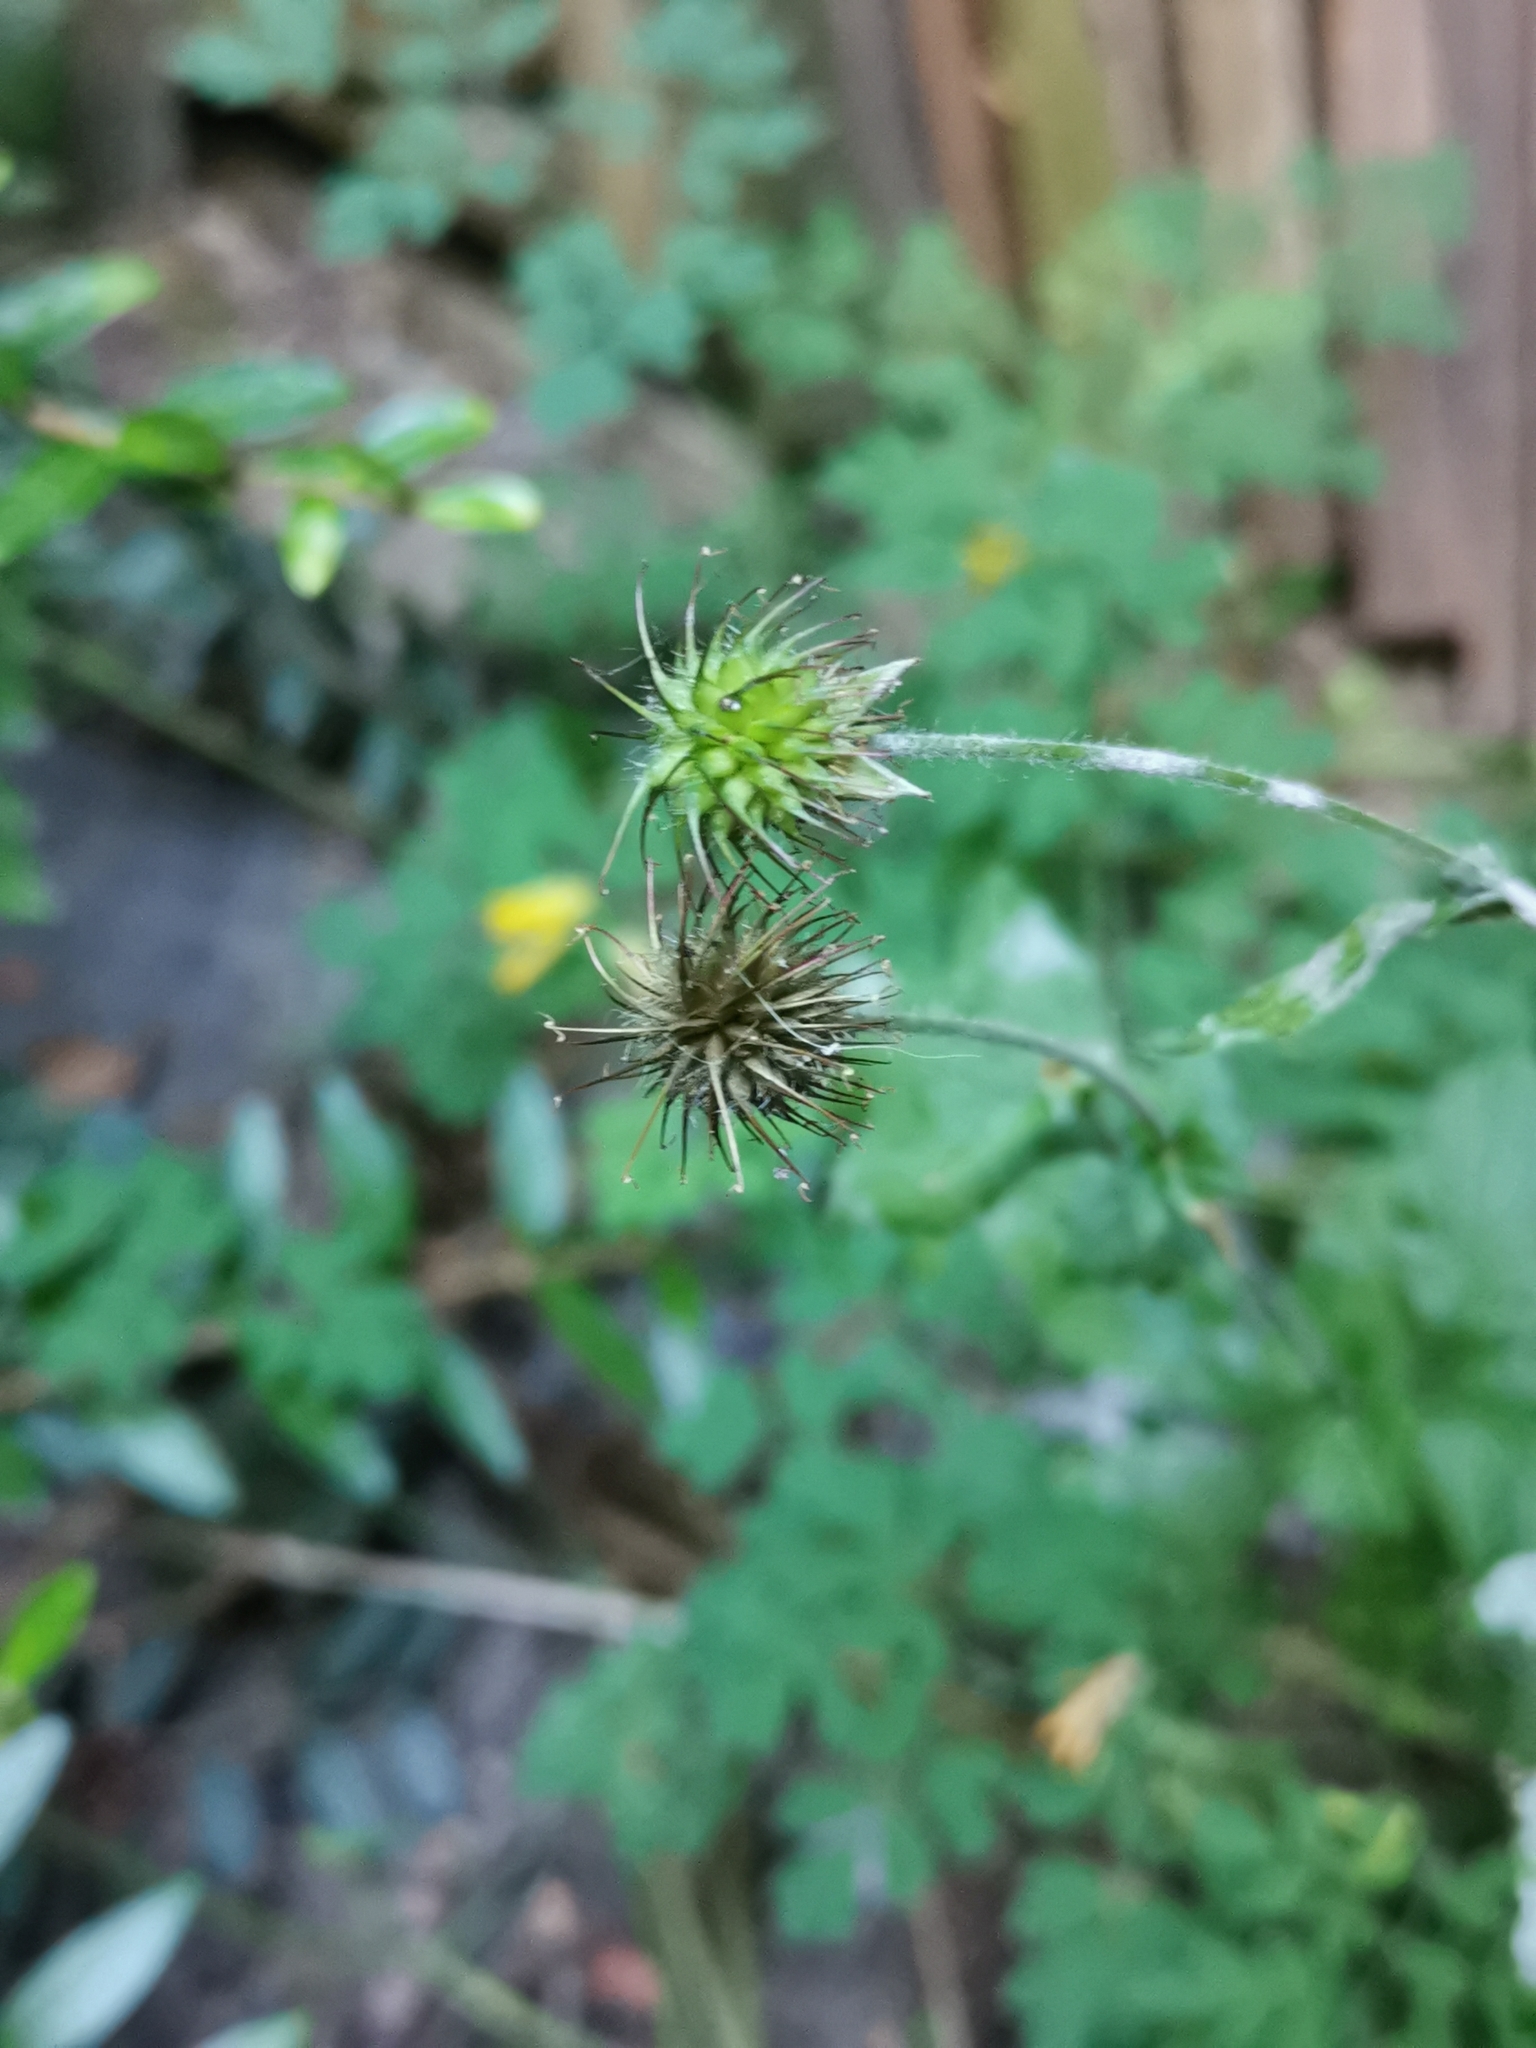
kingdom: Plantae
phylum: Tracheophyta
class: Magnoliopsida
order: Rosales
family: Rosaceae
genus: Geum
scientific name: Geum urbanum
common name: Wood avens
